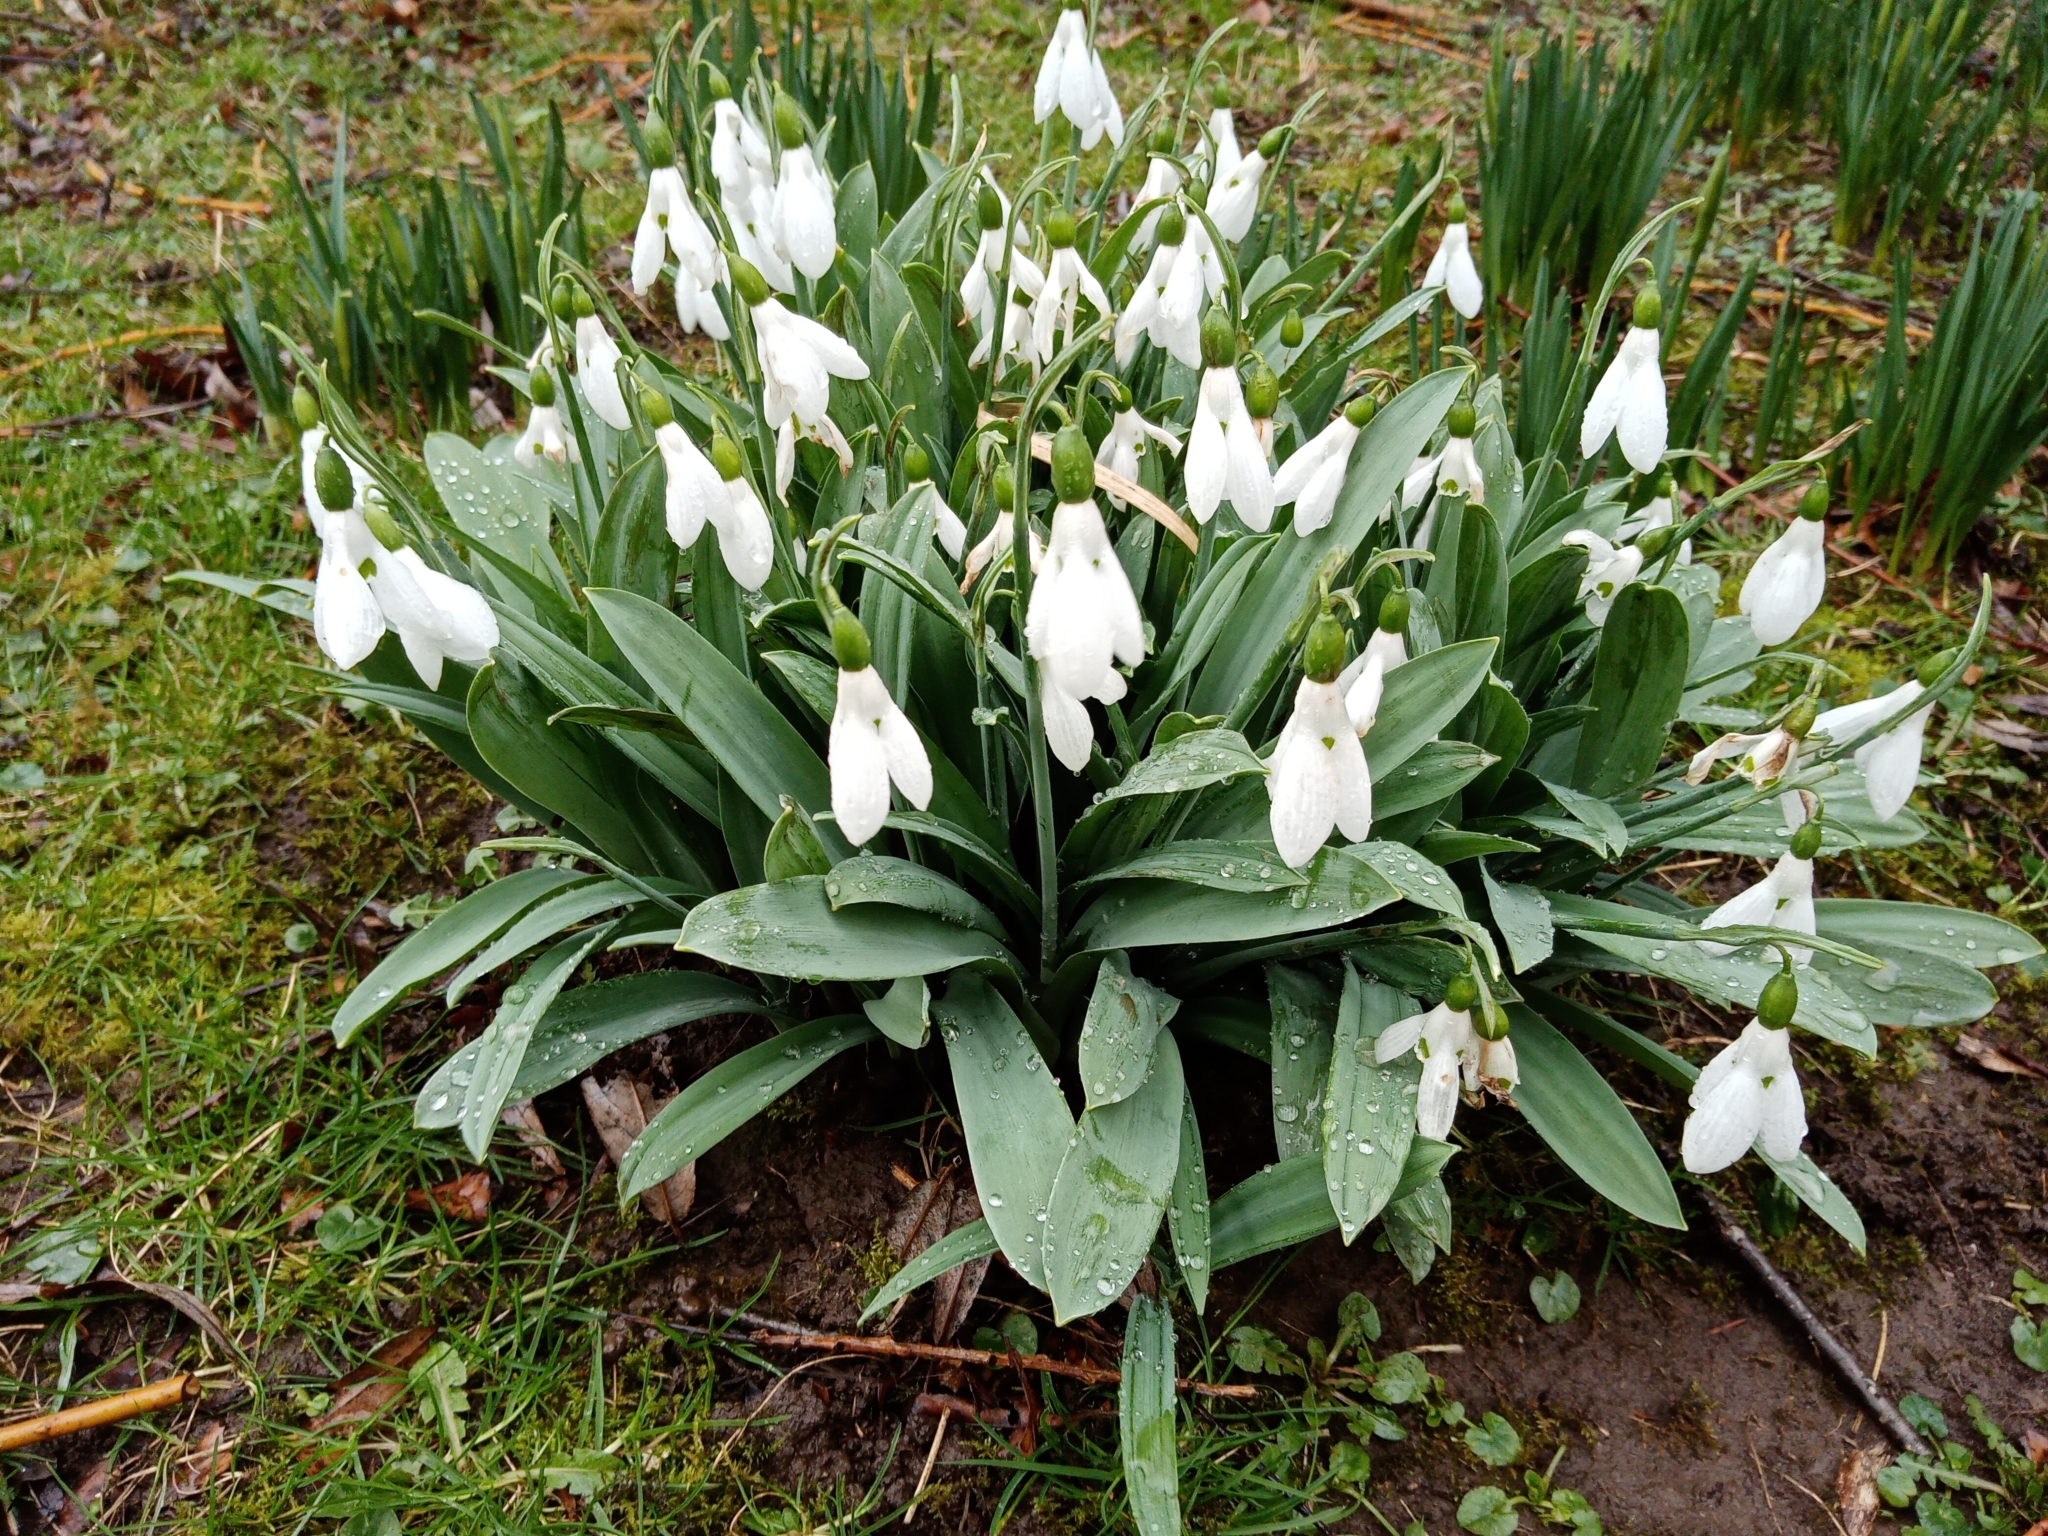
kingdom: Plantae
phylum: Tracheophyta
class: Liliopsida
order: Asparagales
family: Amaryllidaceae
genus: Galanthus
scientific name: Galanthus elwesii
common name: Greater snowdrop
